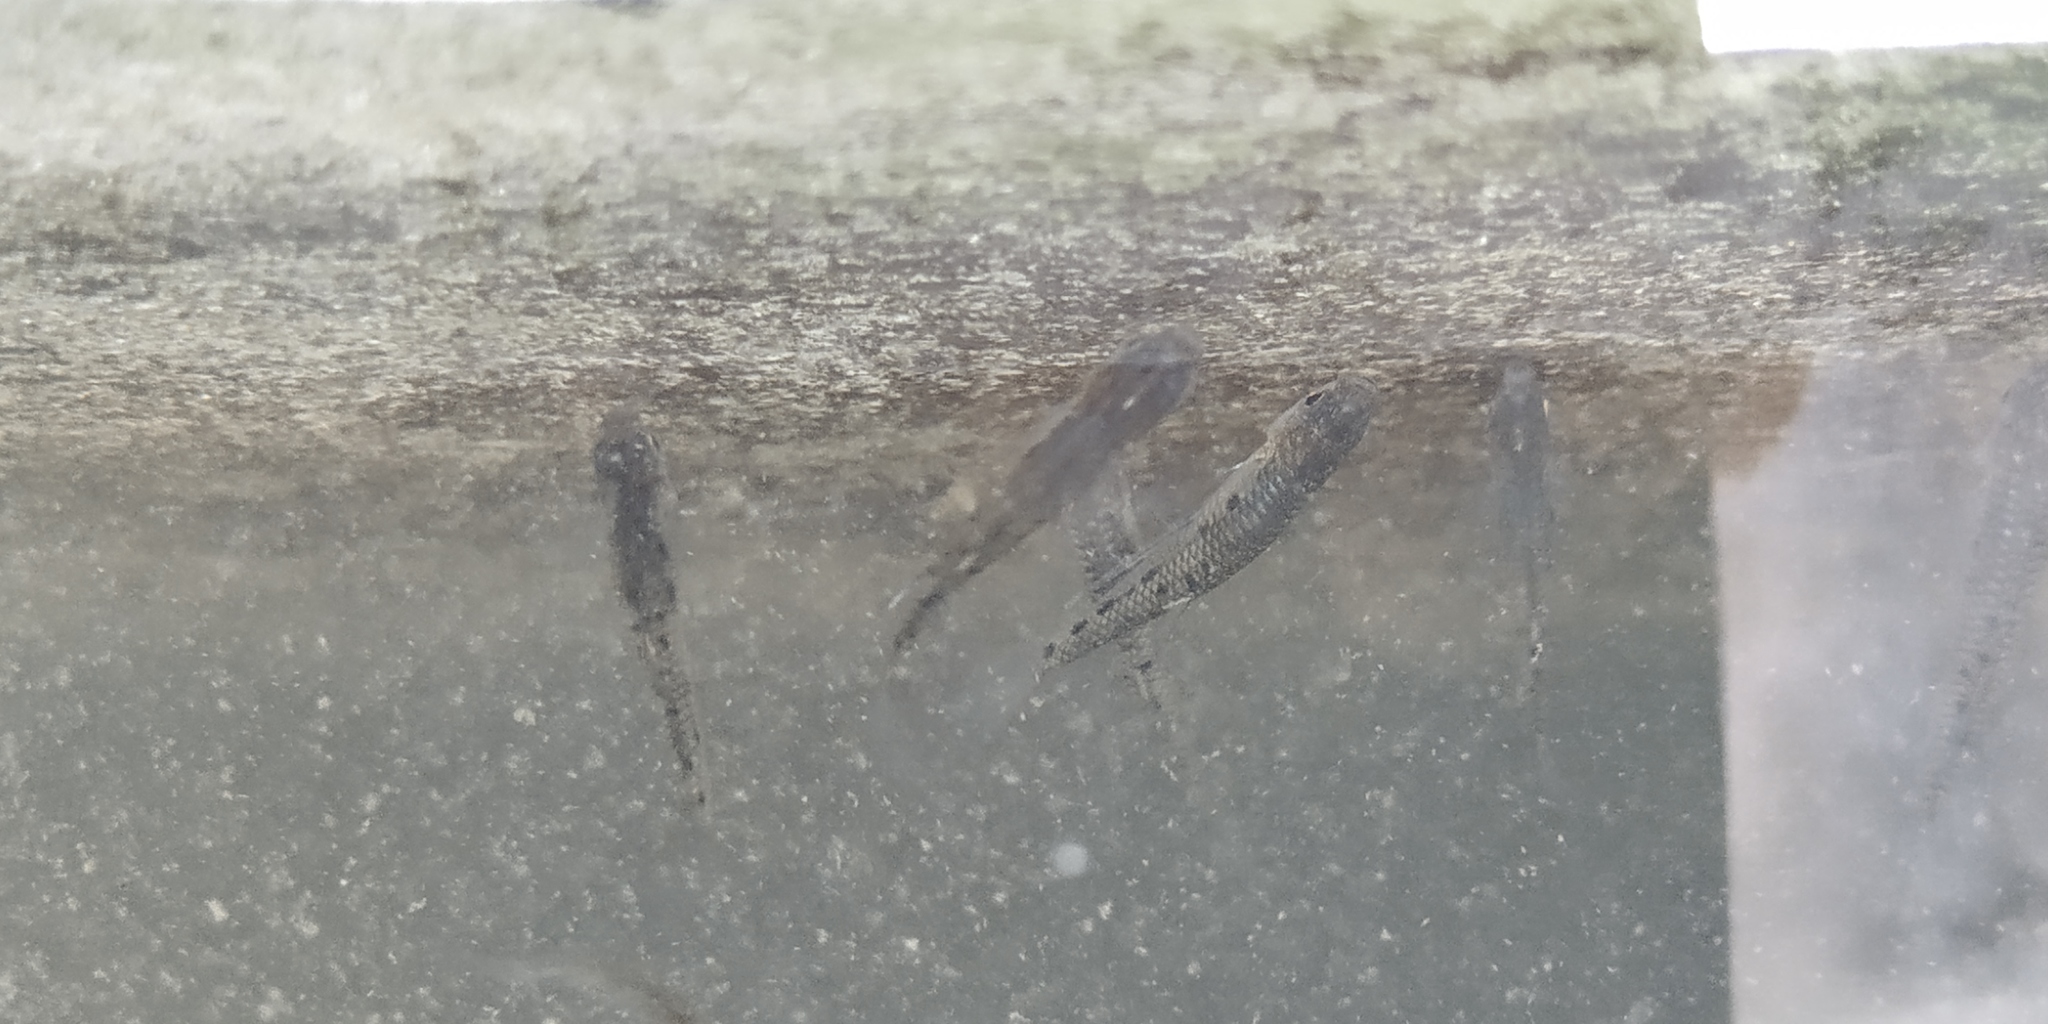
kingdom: Animalia
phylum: Chordata
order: Cyprinodontiformes
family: Poeciliidae
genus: Poeciliopsis
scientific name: Poeciliopsis gracilis
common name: Porthole livebearer
